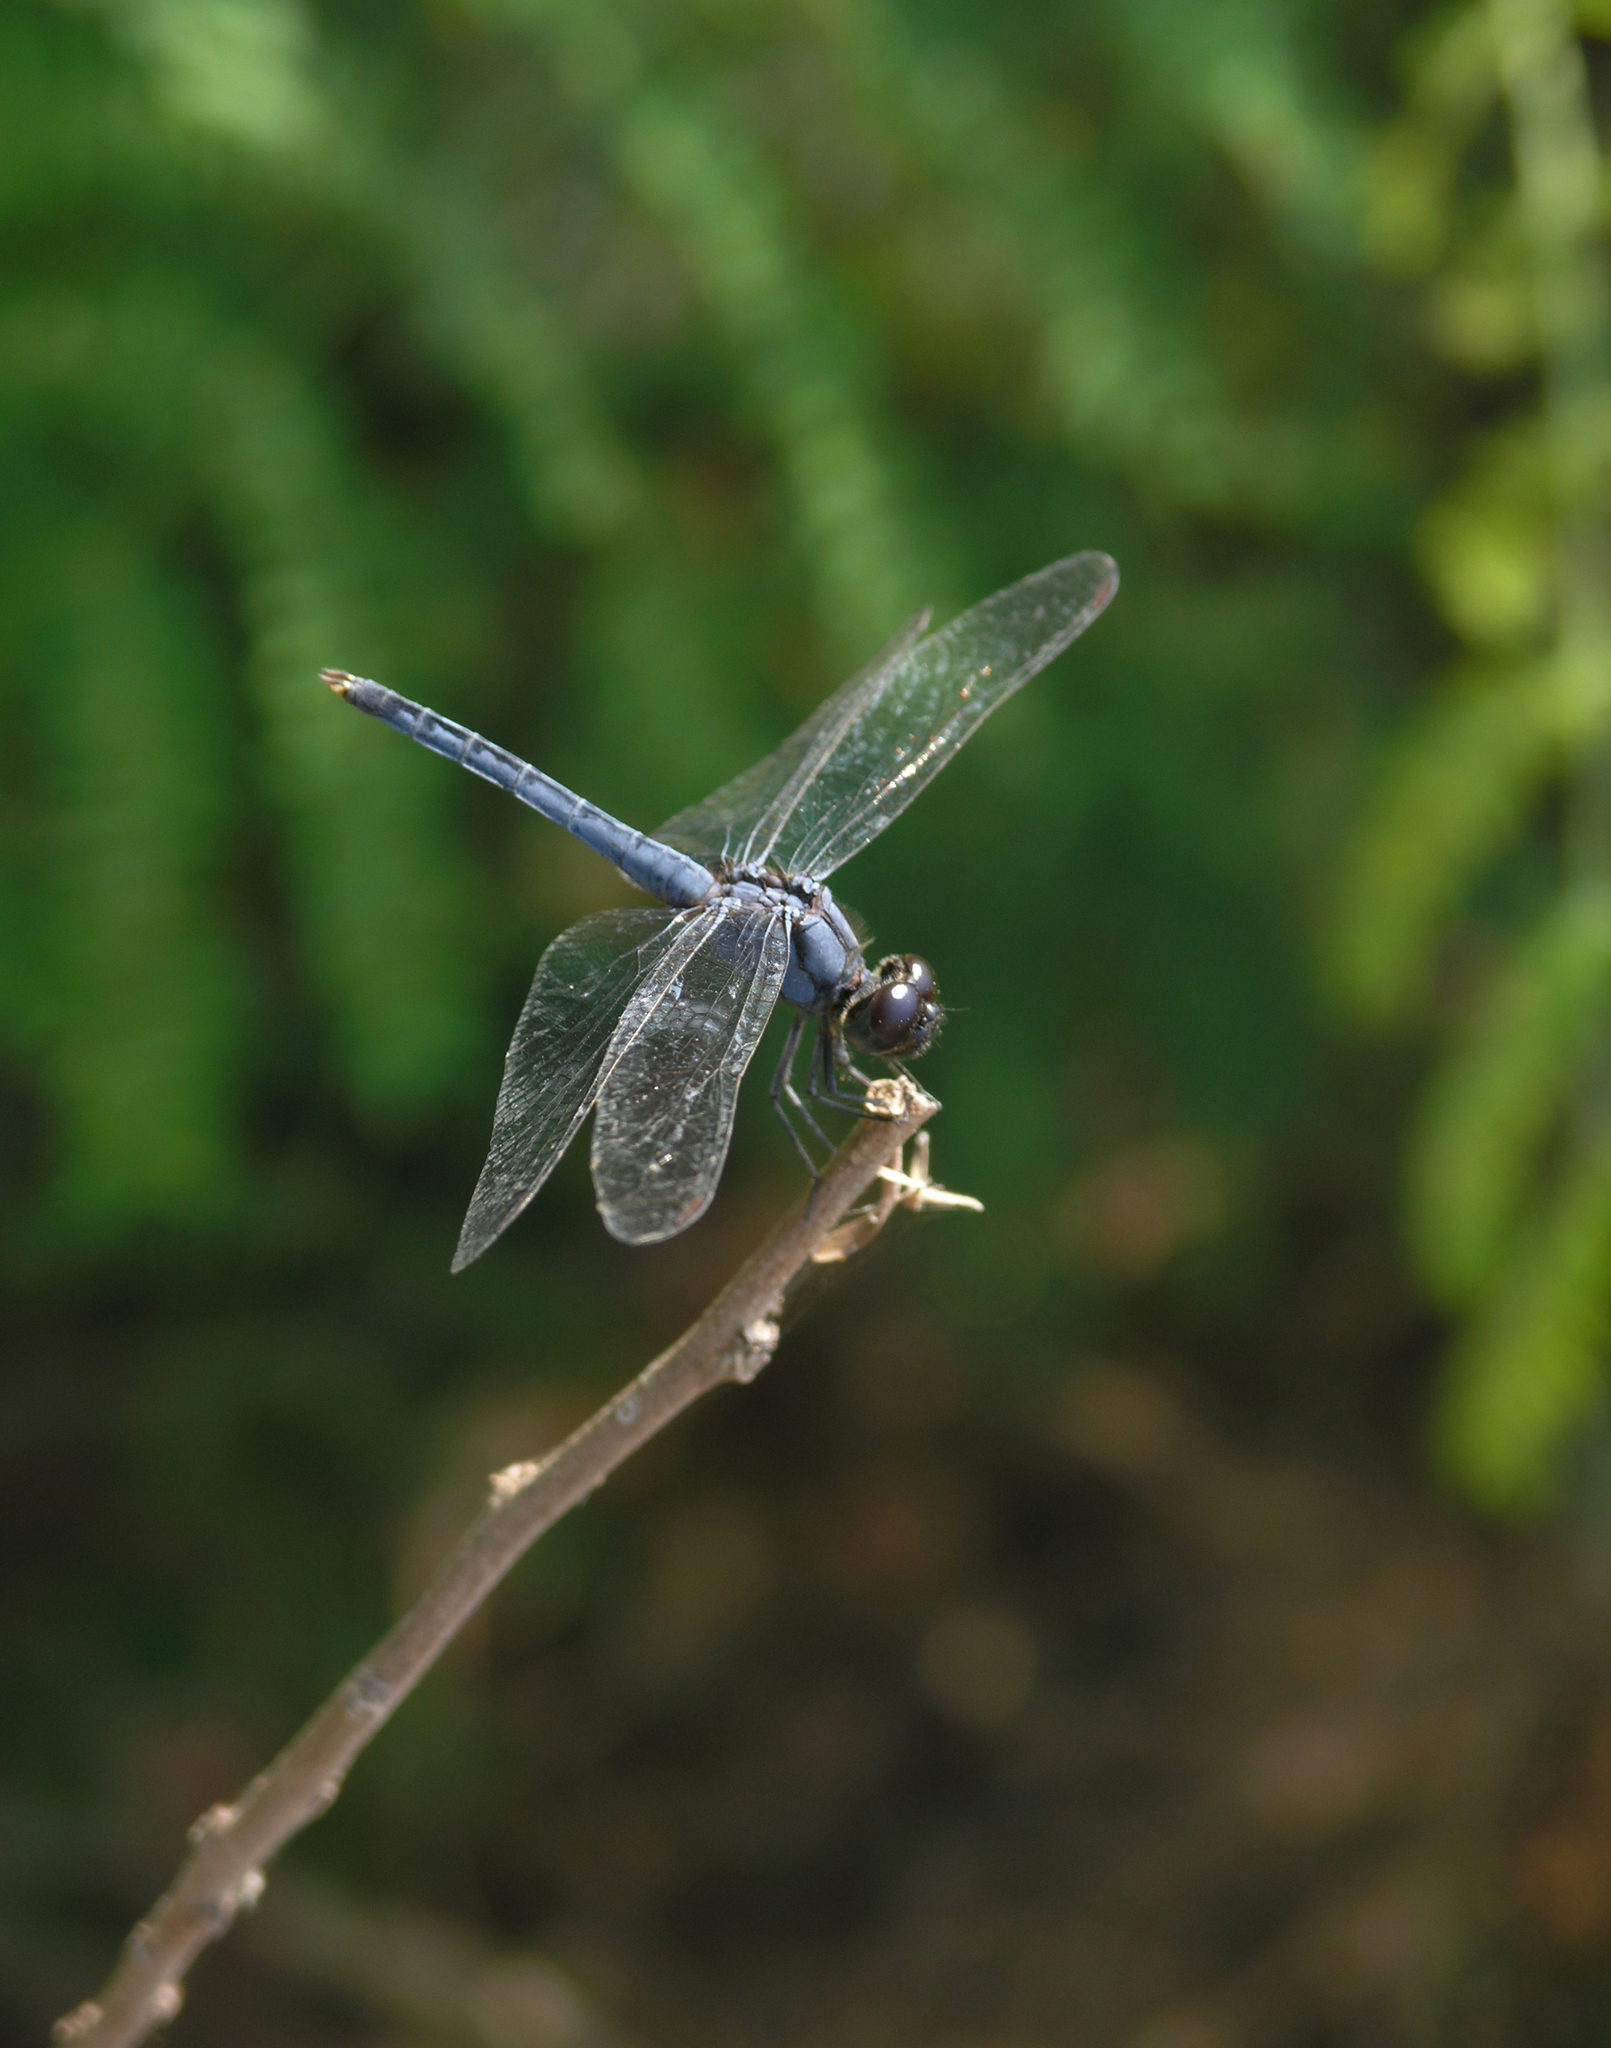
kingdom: Animalia
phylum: Arthropoda
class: Insecta
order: Odonata
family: Libellulidae
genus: Indothemis
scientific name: Indothemis carnatica
